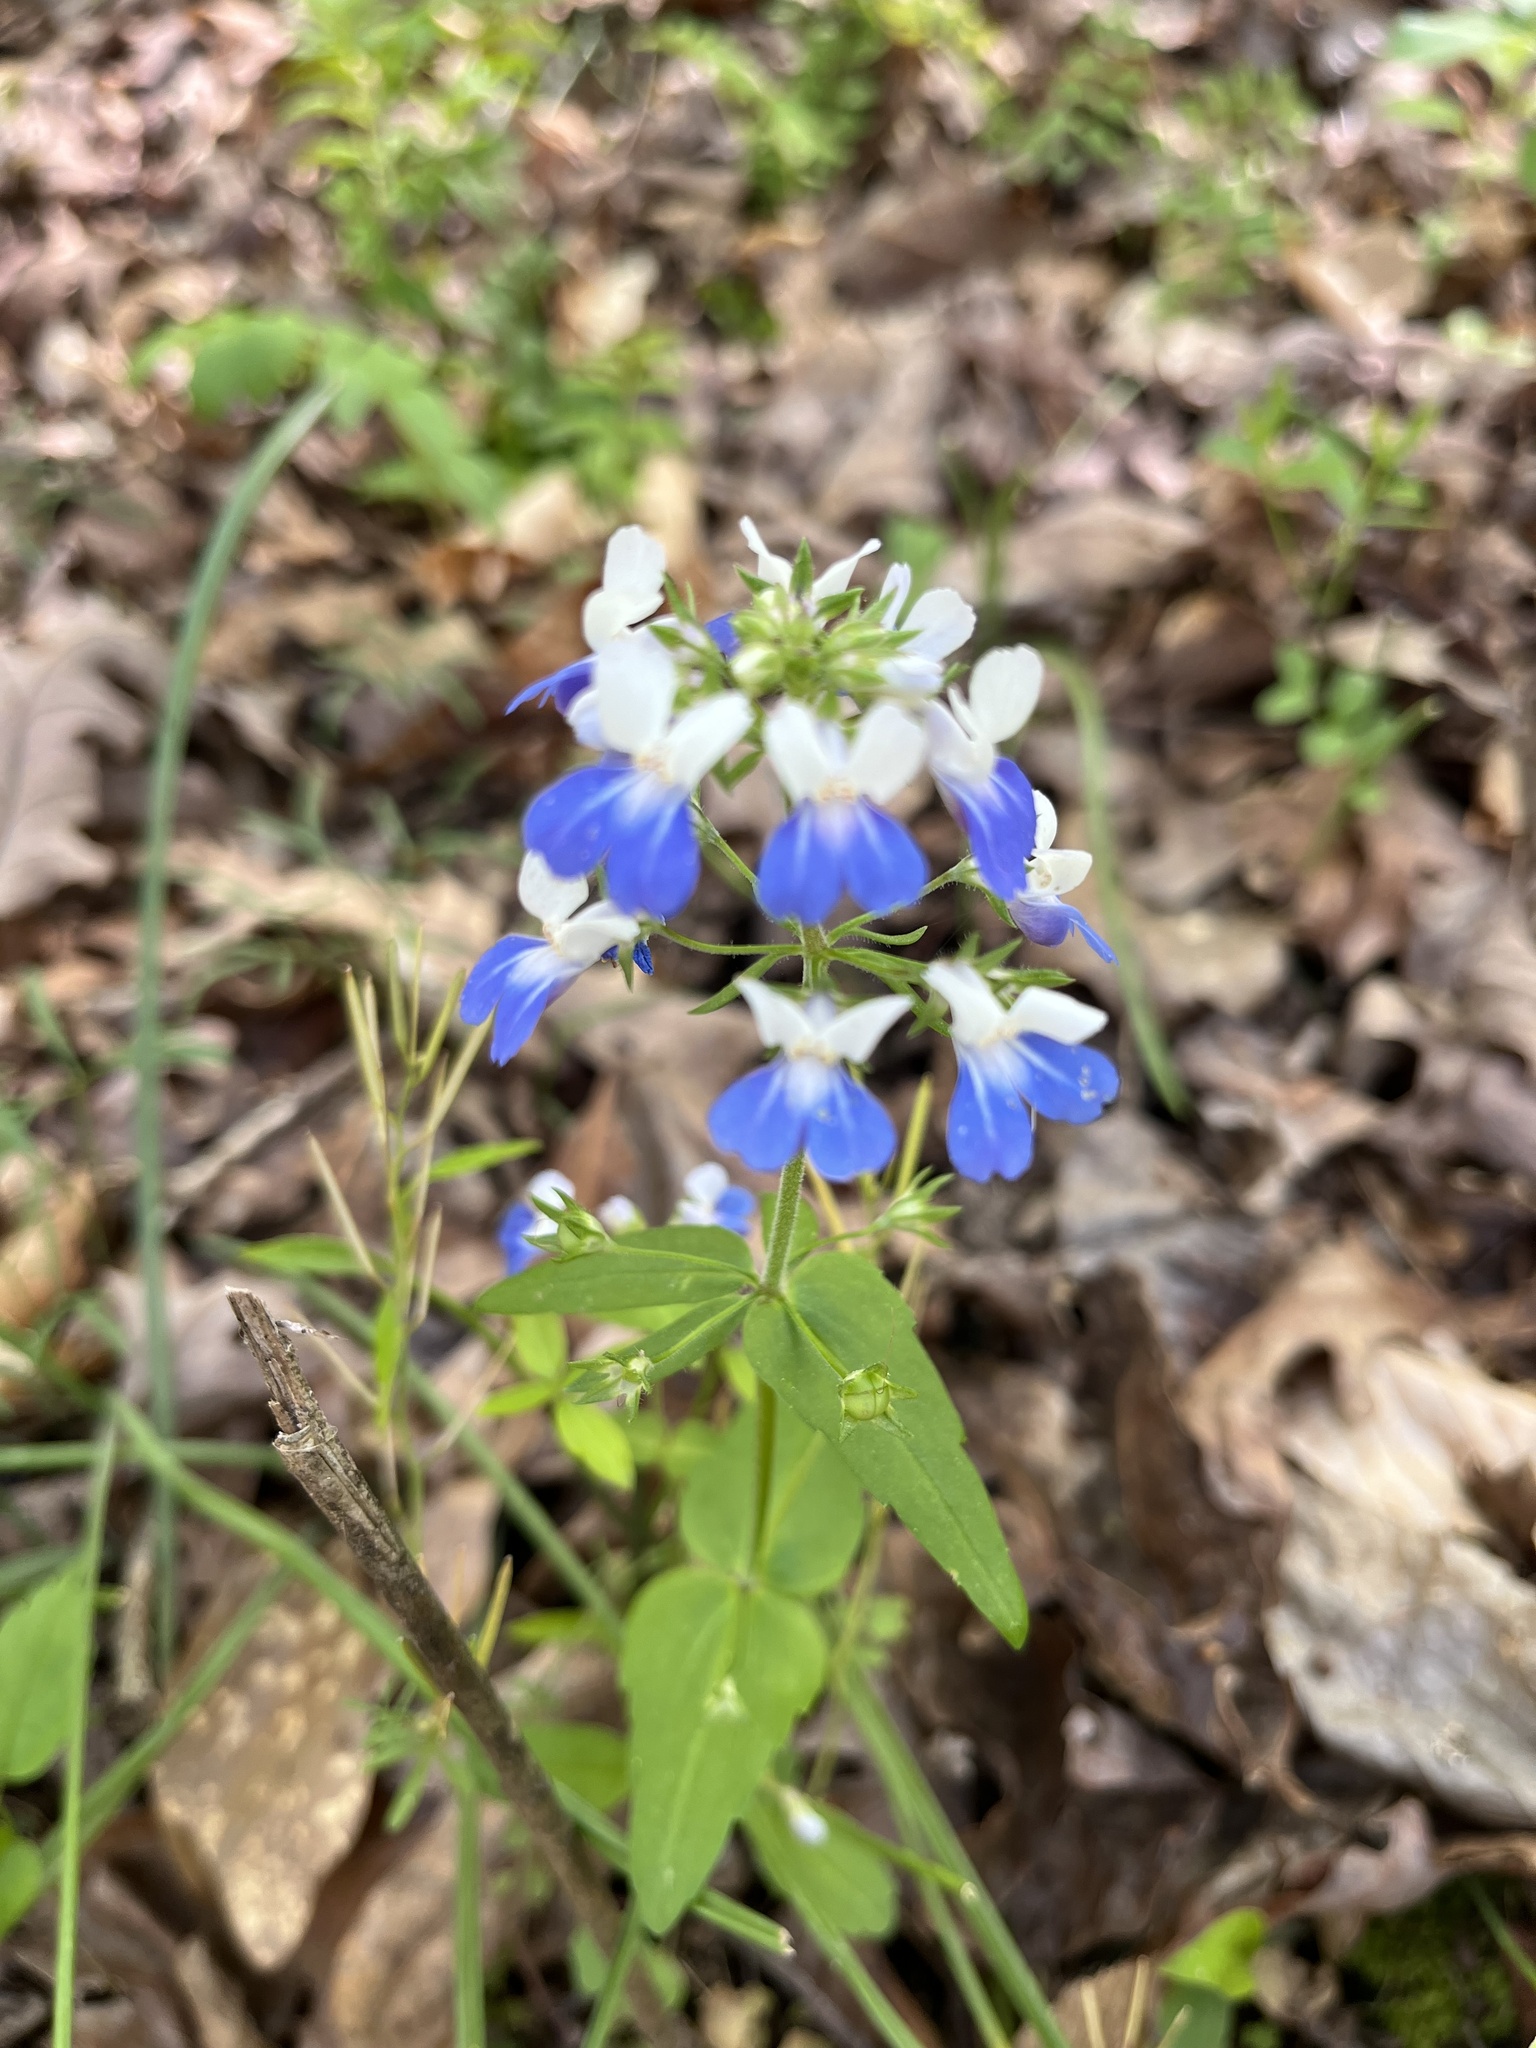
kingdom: Plantae
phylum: Tracheophyta
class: Magnoliopsida
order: Lamiales
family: Plantaginaceae
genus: Collinsia
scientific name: Collinsia verna
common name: Broad-leaved collinsia
